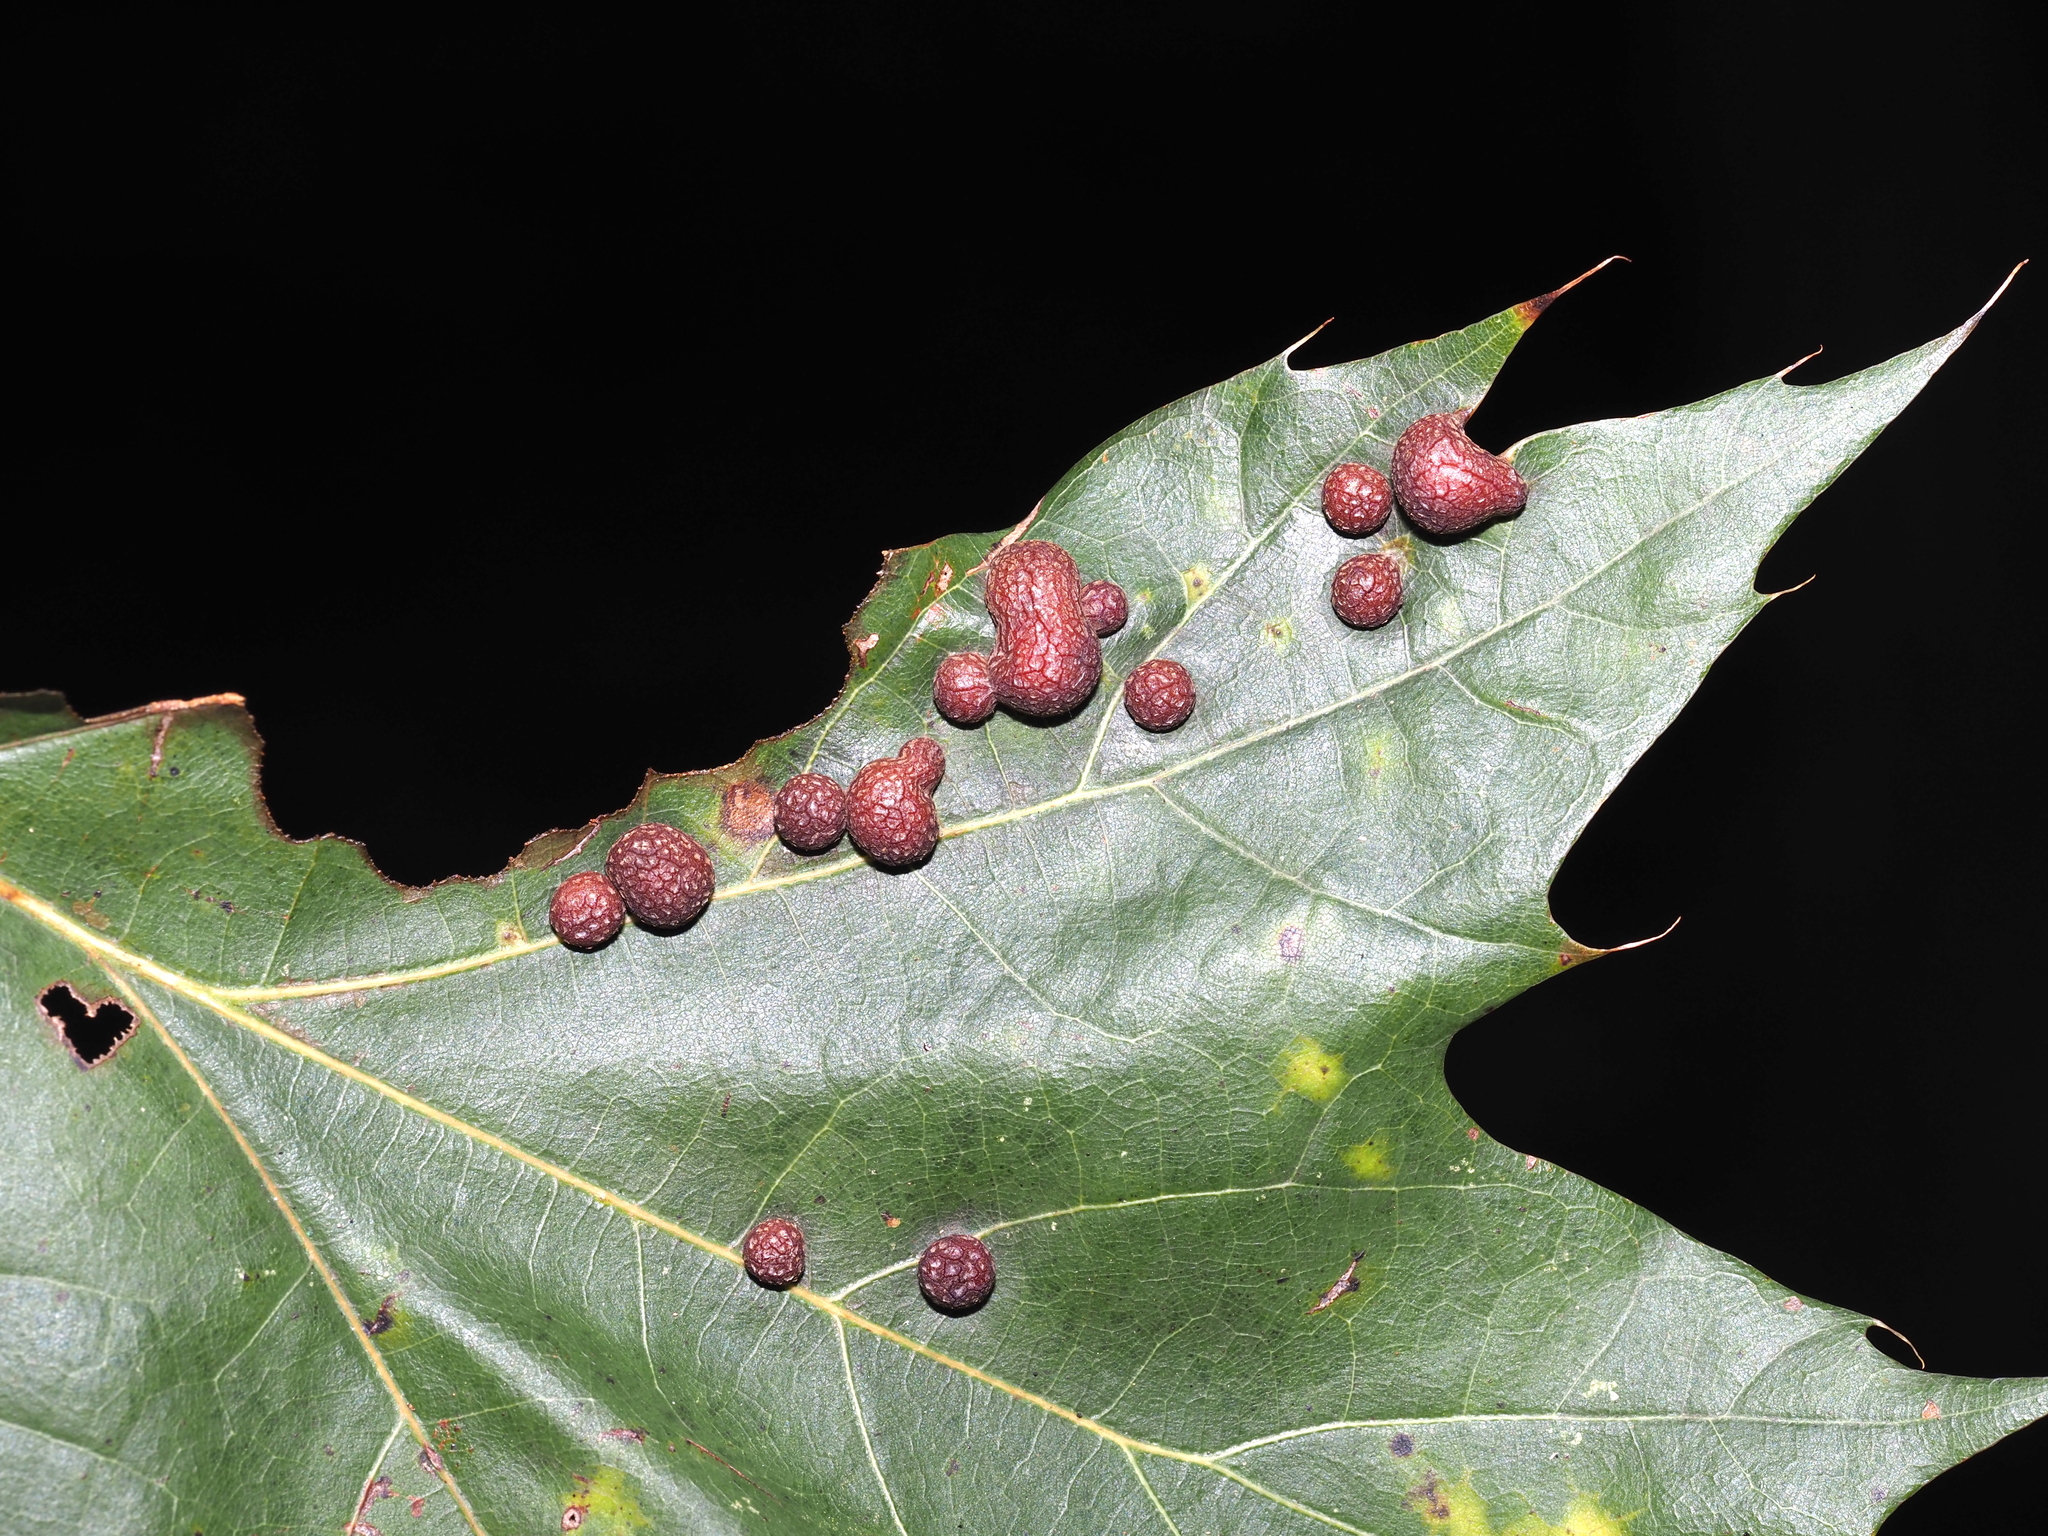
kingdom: Animalia
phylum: Arthropoda
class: Insecta
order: Diptera
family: Cecidomyiidae
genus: Polystepha
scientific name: Polystepha pilulae
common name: Oak leaf gall midge
